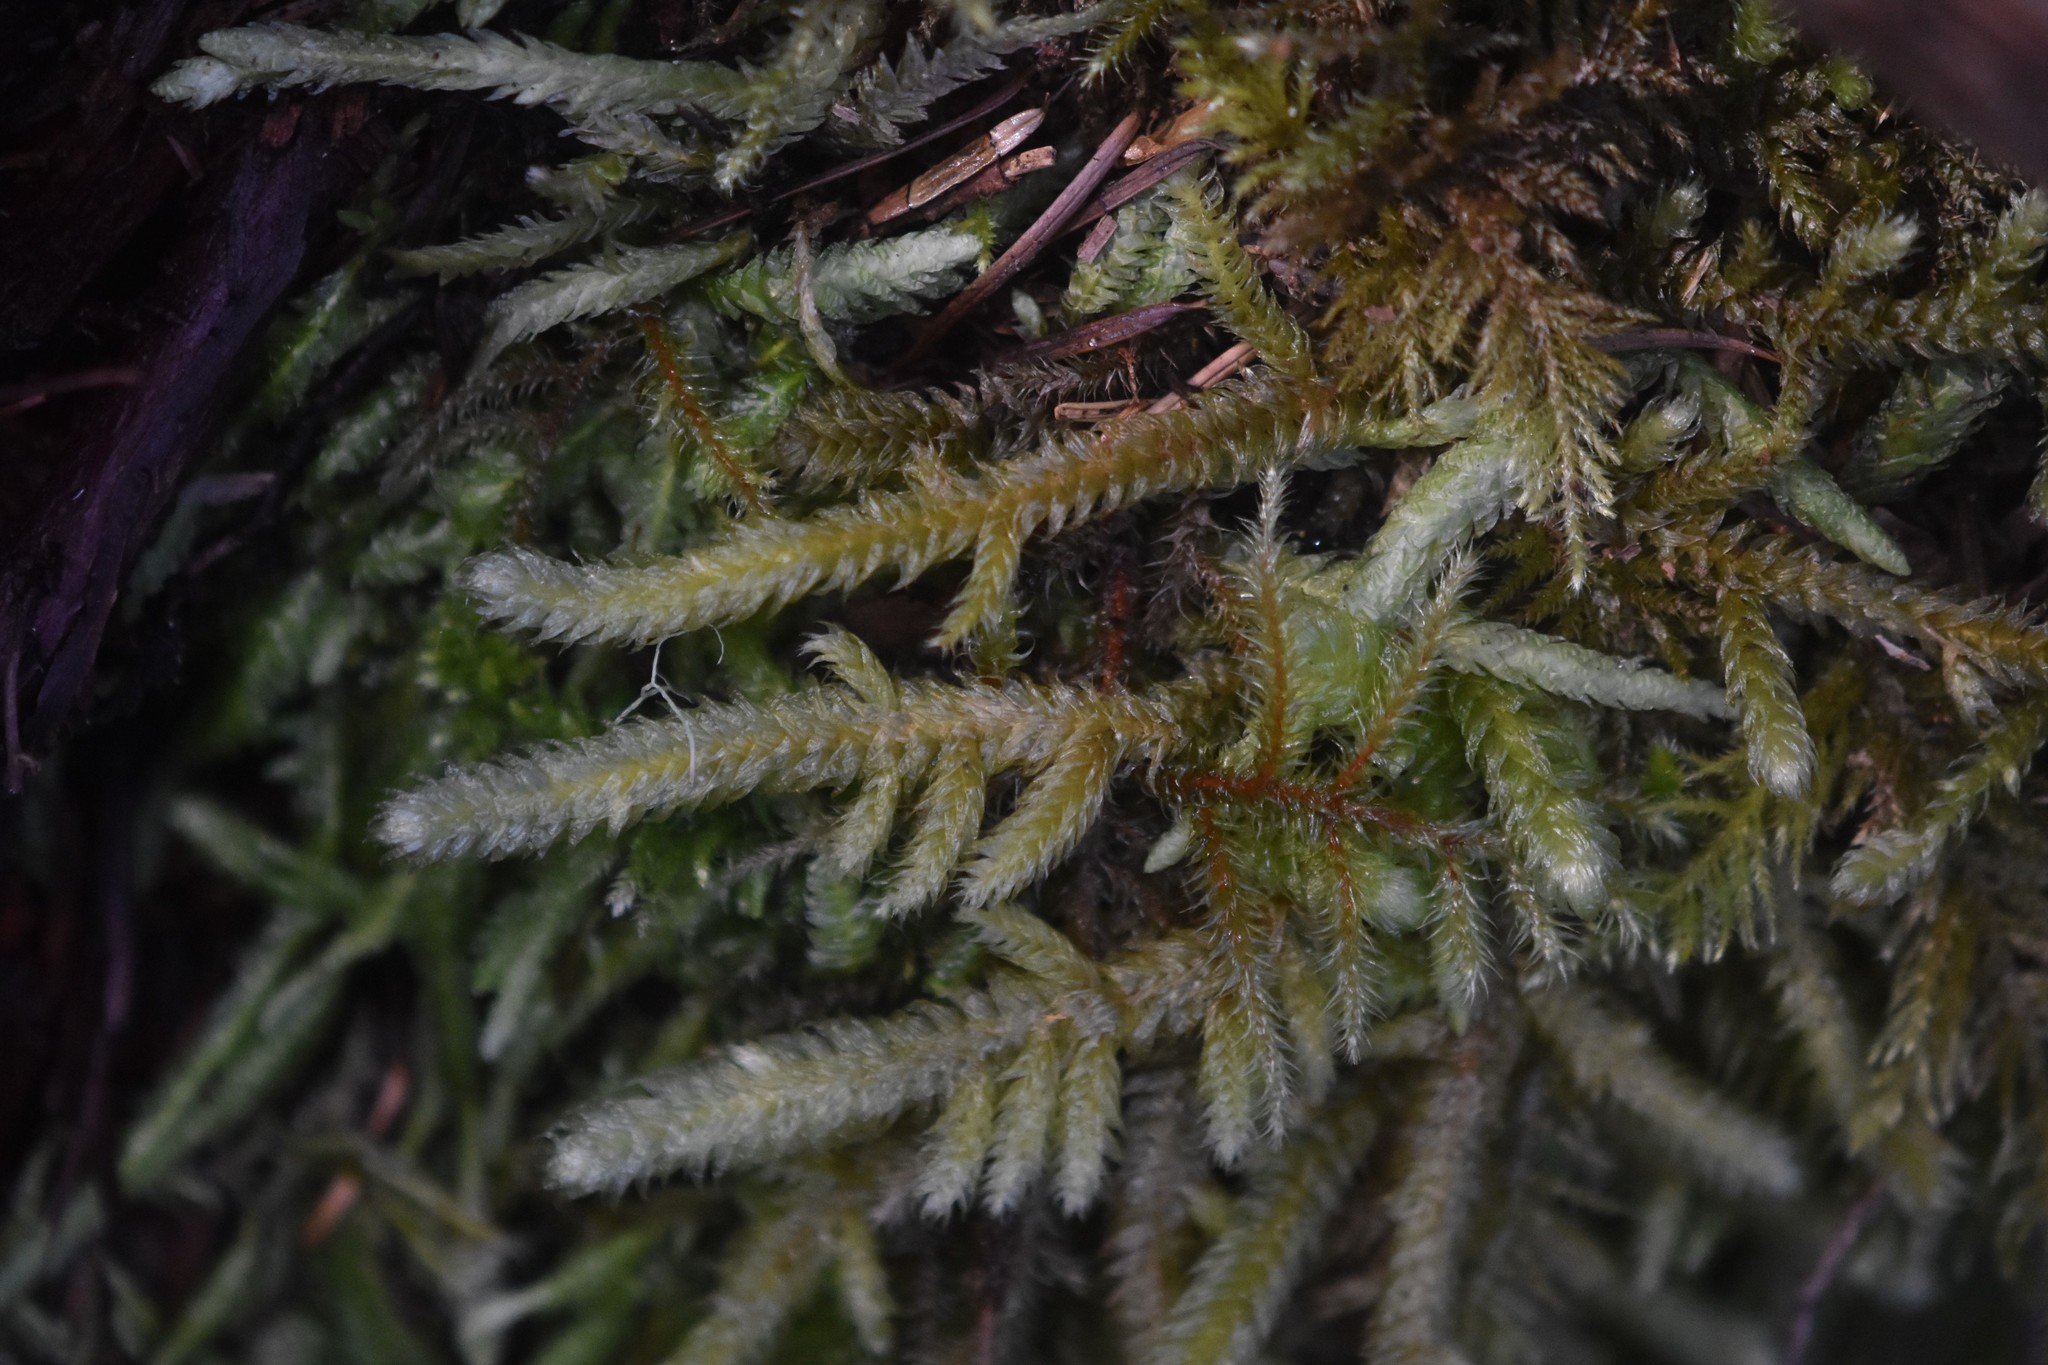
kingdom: Plantae
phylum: Bryophyta
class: Bryopsida
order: Hypnales
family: Hylocomiaceae
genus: Rhytidiopsis
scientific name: Rhytidiopsis robusta
